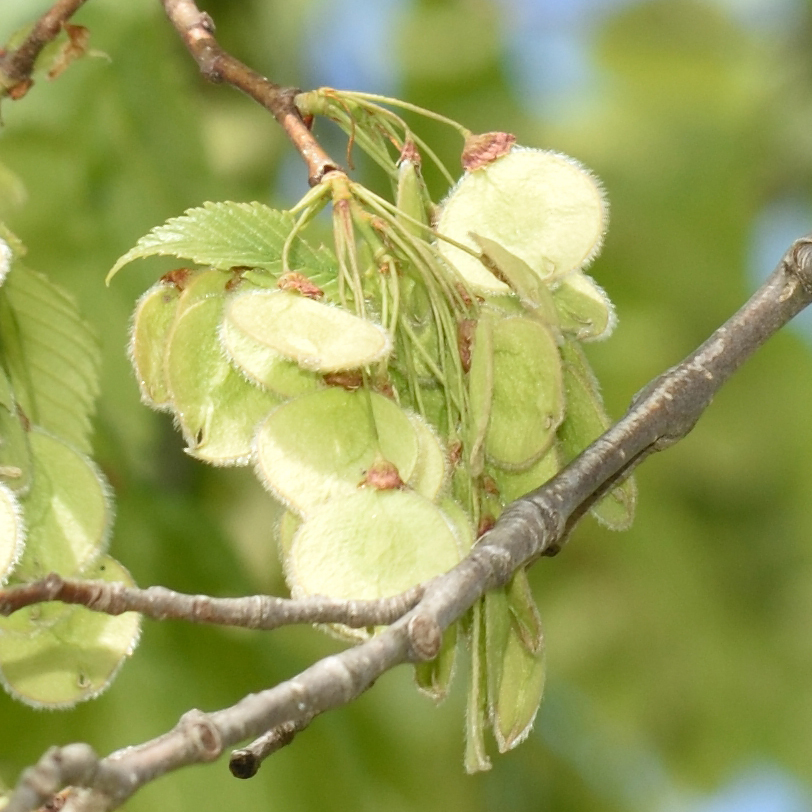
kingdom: Plantae
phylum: Tracheophyta
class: Magnoliopsida
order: Rosales
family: Ulmaceae
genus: Ulmus
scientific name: Ulmus laevis
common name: European white-elm
